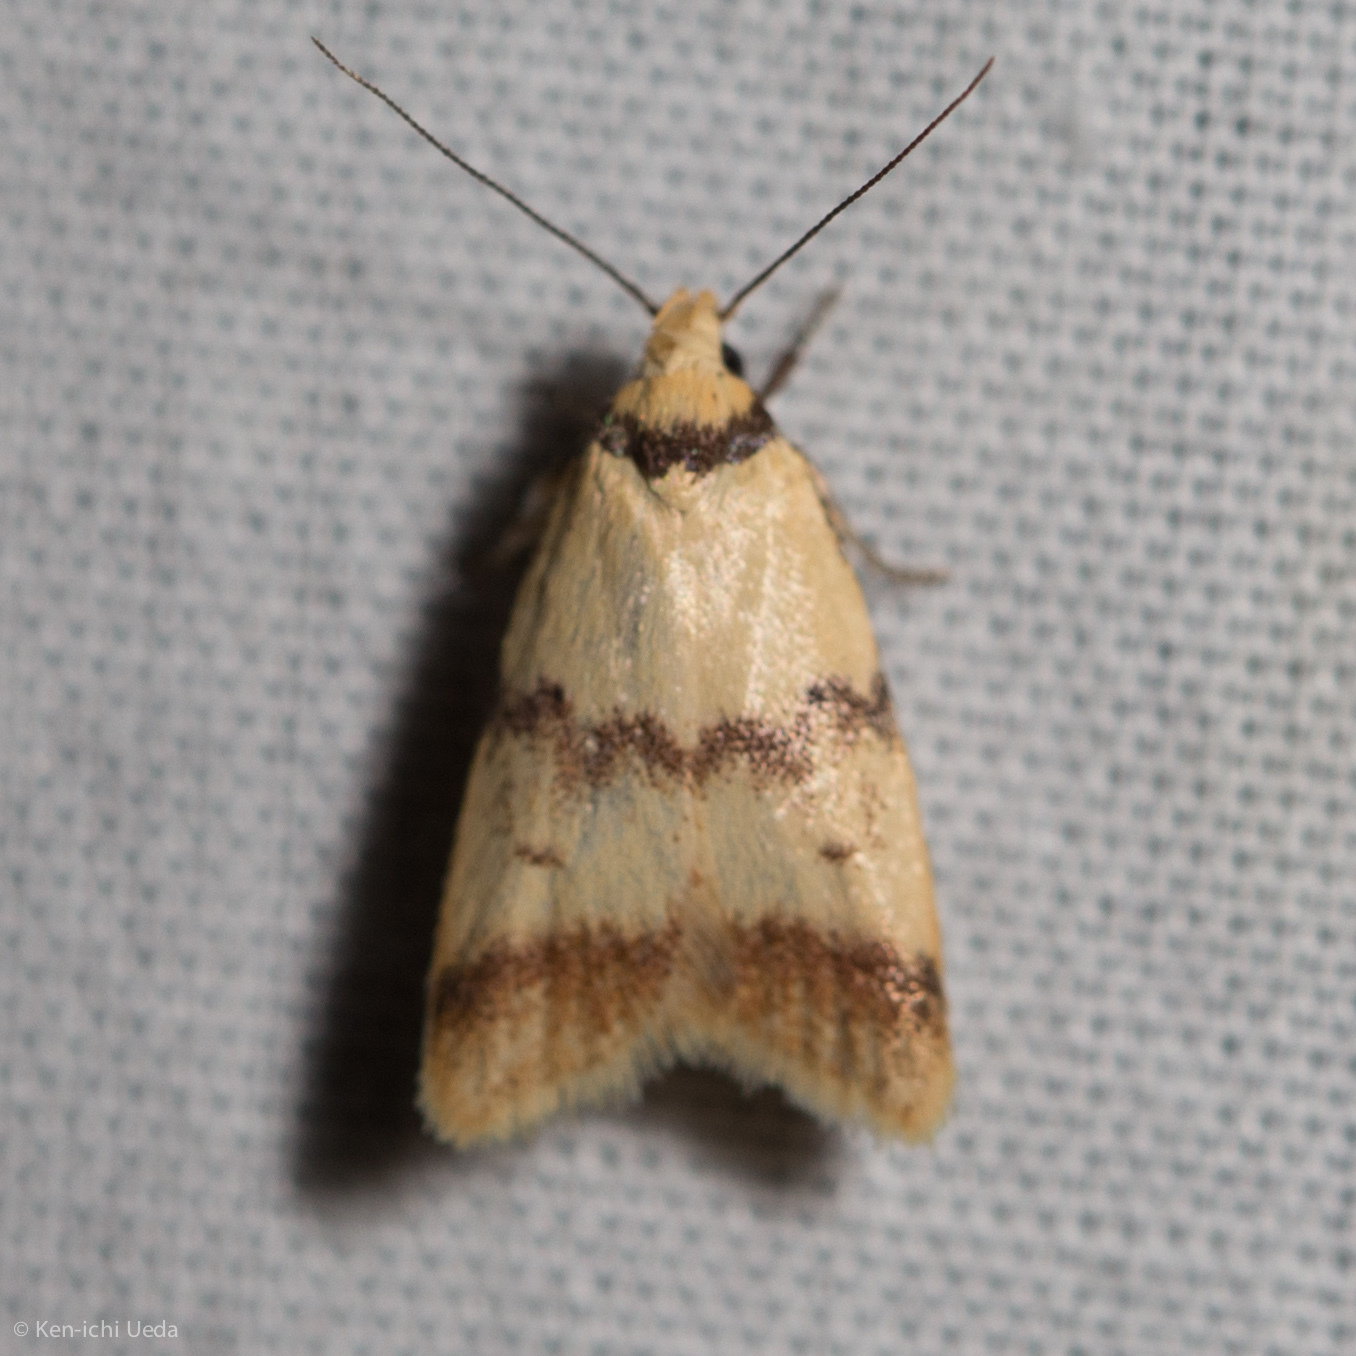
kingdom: Animalia
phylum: Arthropoda
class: Insecta
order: Lepidoptera
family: Oecophoridae
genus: Heteroteucha
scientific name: Heteroteucha anthodora
